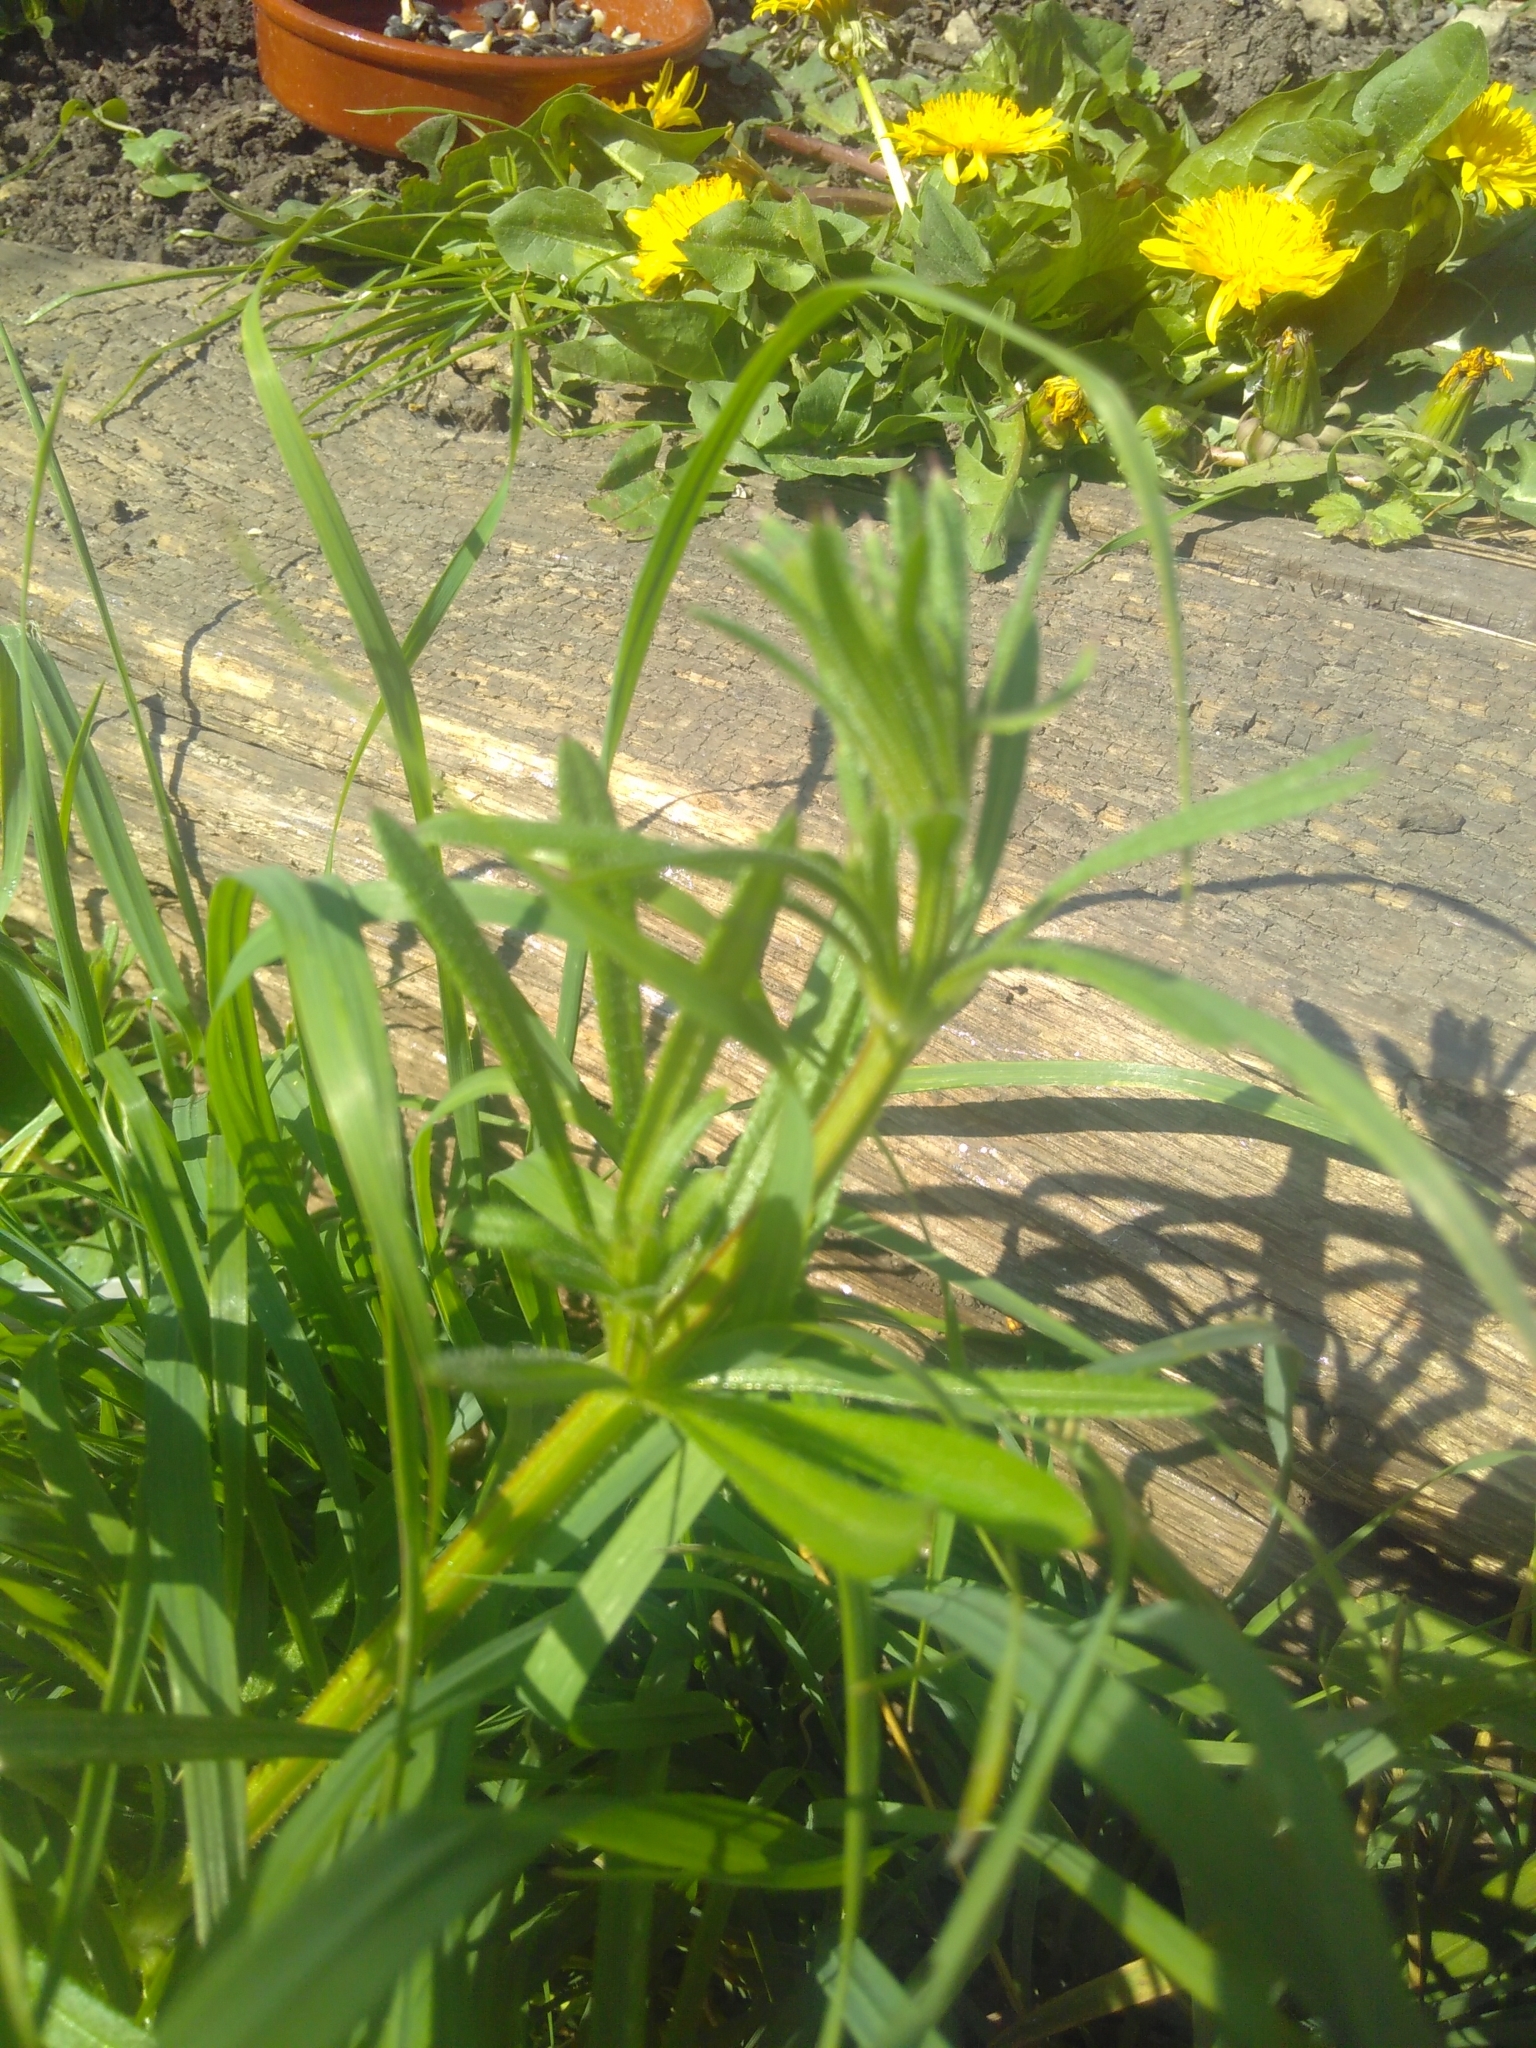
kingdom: Plantae
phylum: Tracheophyta
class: Magnoliopsida
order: Gentianales
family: Rubiaceae
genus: Galium
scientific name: Galium aparine
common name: Cleavers
